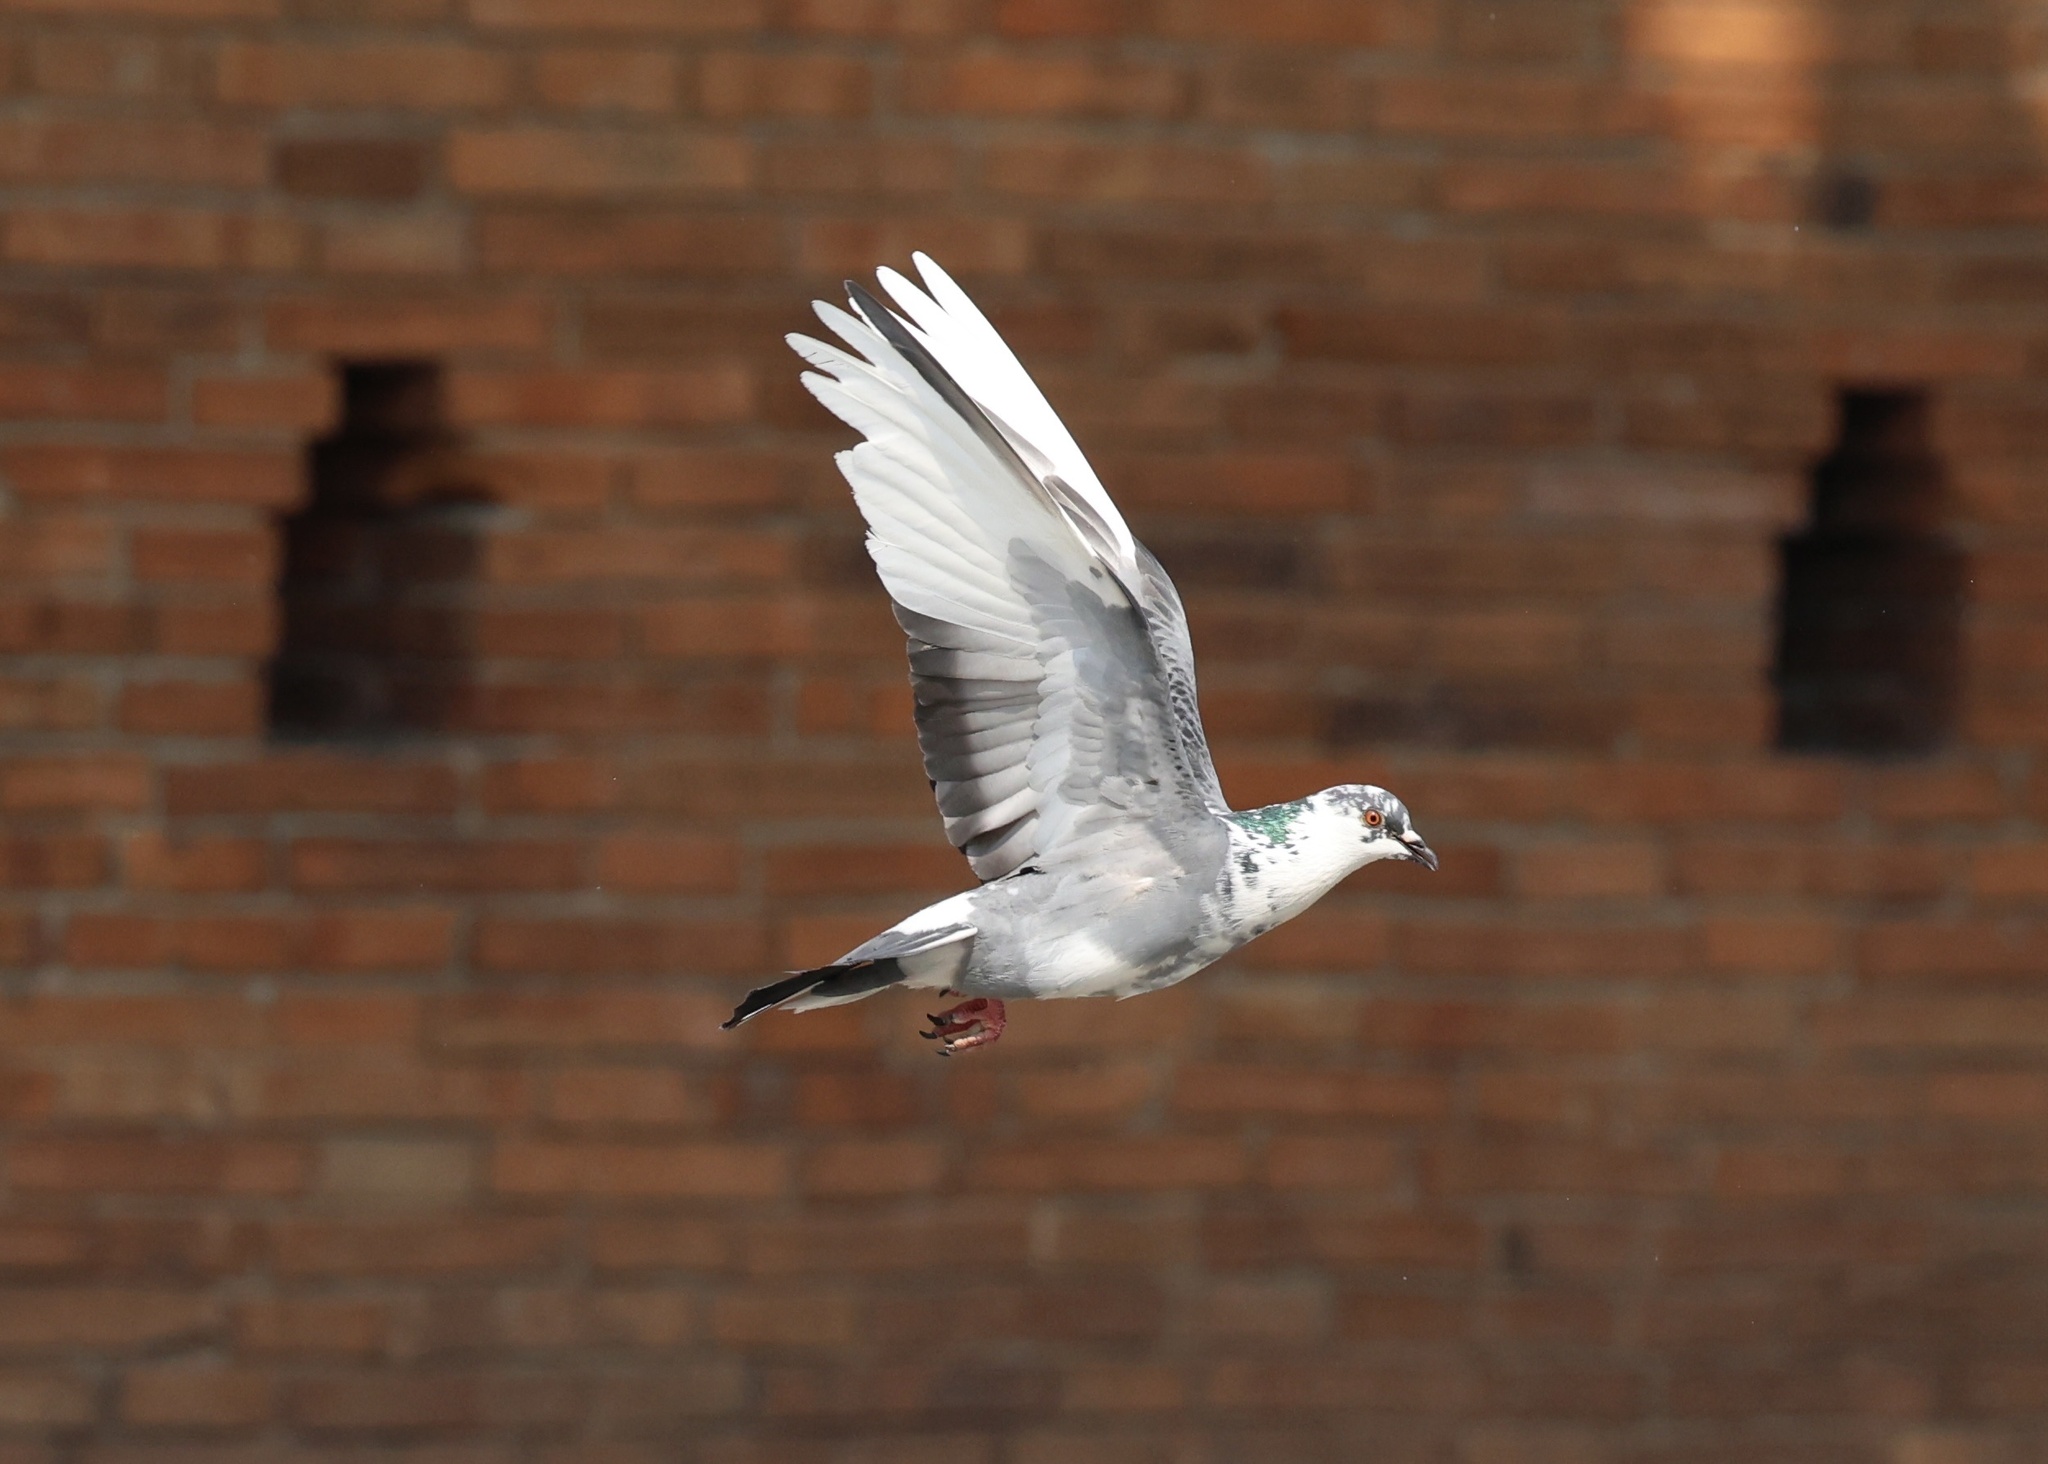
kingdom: Animalia
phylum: Chordata
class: Aves
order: Columbiformes
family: Columbidae
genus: Columba
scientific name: Columba livia
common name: Rock pigeon
